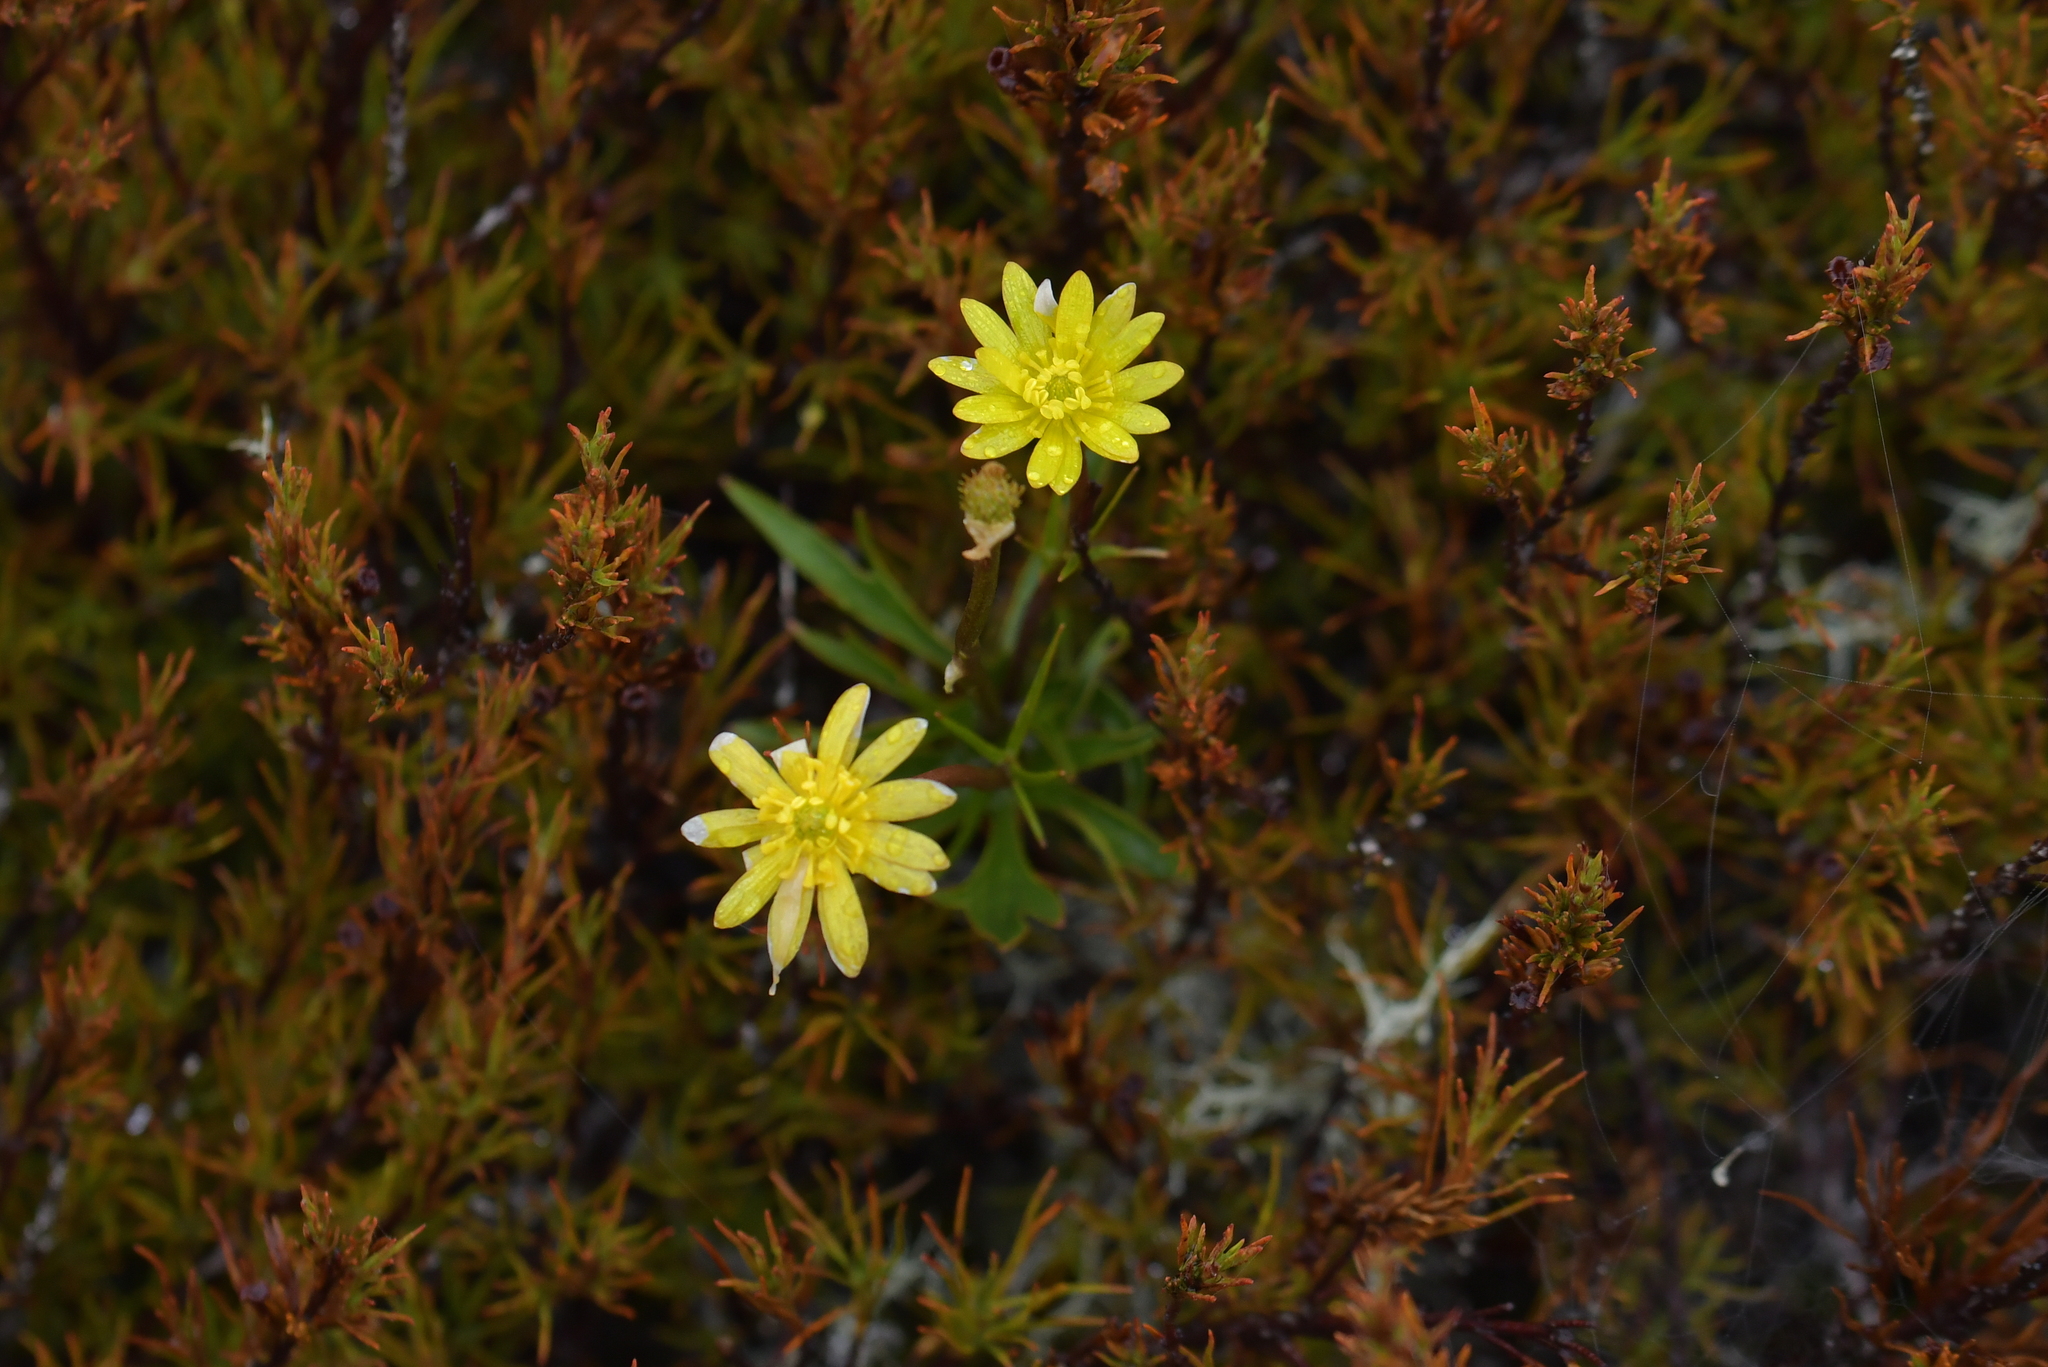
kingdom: Plantae
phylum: Tracheophyta
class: Magnoliopsida
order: Ranunculales
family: Ranunculaceae
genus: Ranunculus
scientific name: Ranunculus verticillatus
